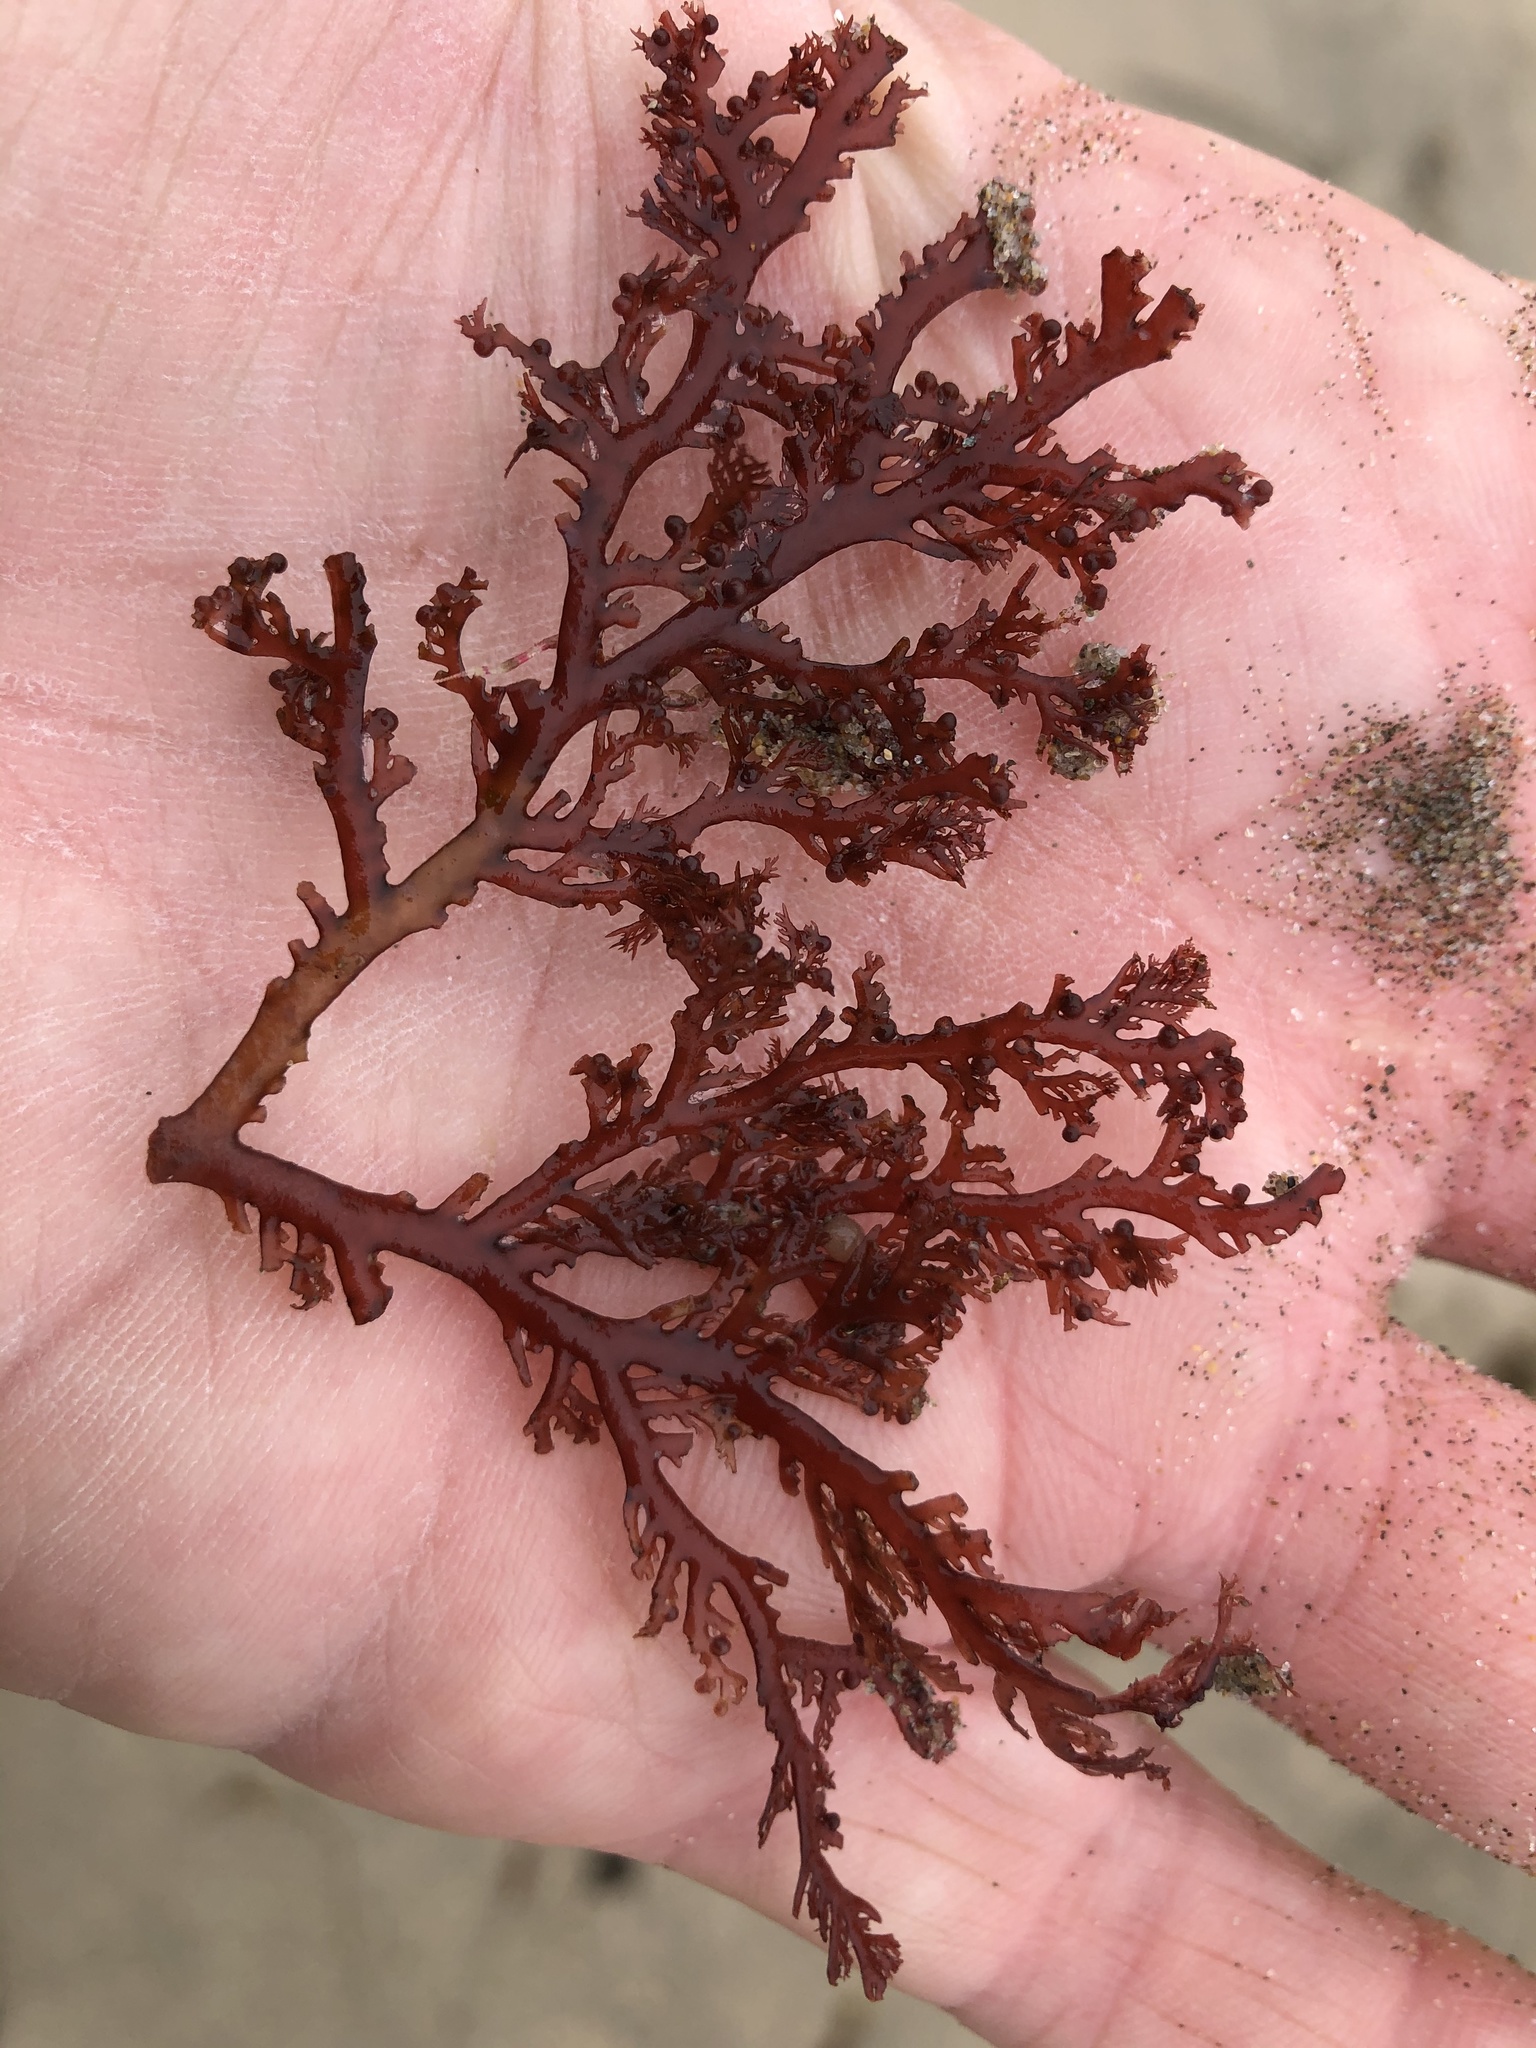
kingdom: Plantae
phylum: Rhodophyta
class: Florideophyceae
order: Plocamiales
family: Plocamiaceae
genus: Plocamium
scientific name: Plocamium cartilagineum
